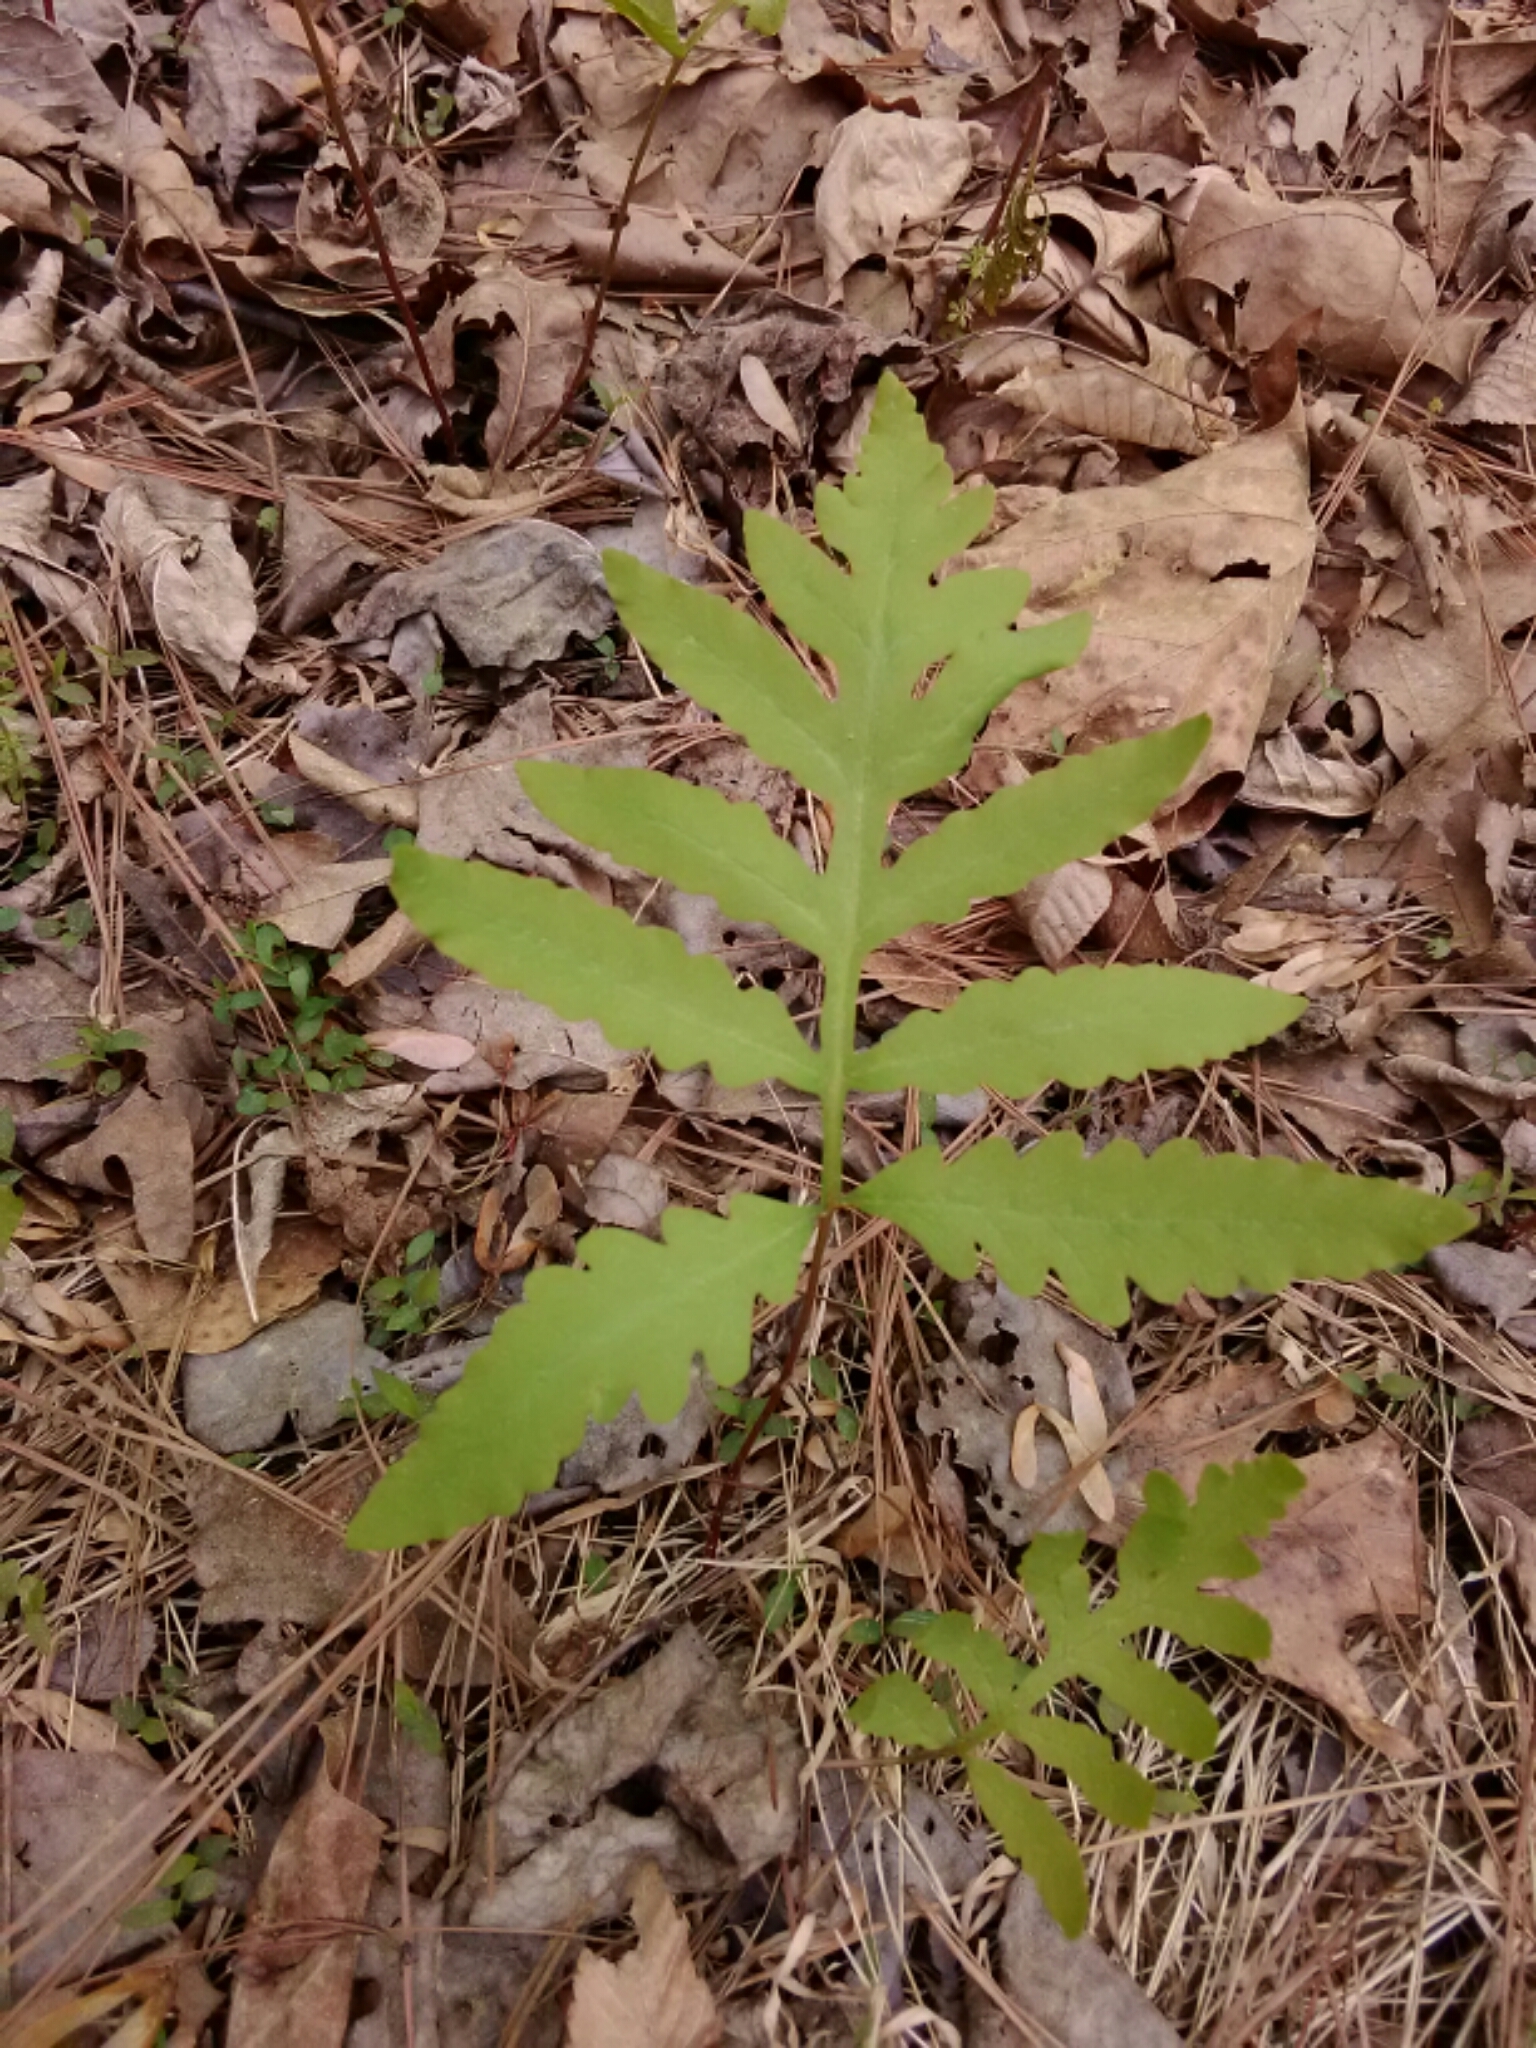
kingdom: Plantae
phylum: Tracheophyta
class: Polypodiopsida
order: Polypodiales
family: Onocleaceae
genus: Onoclea
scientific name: Onoclea sensibilis
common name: Sensitive fern
